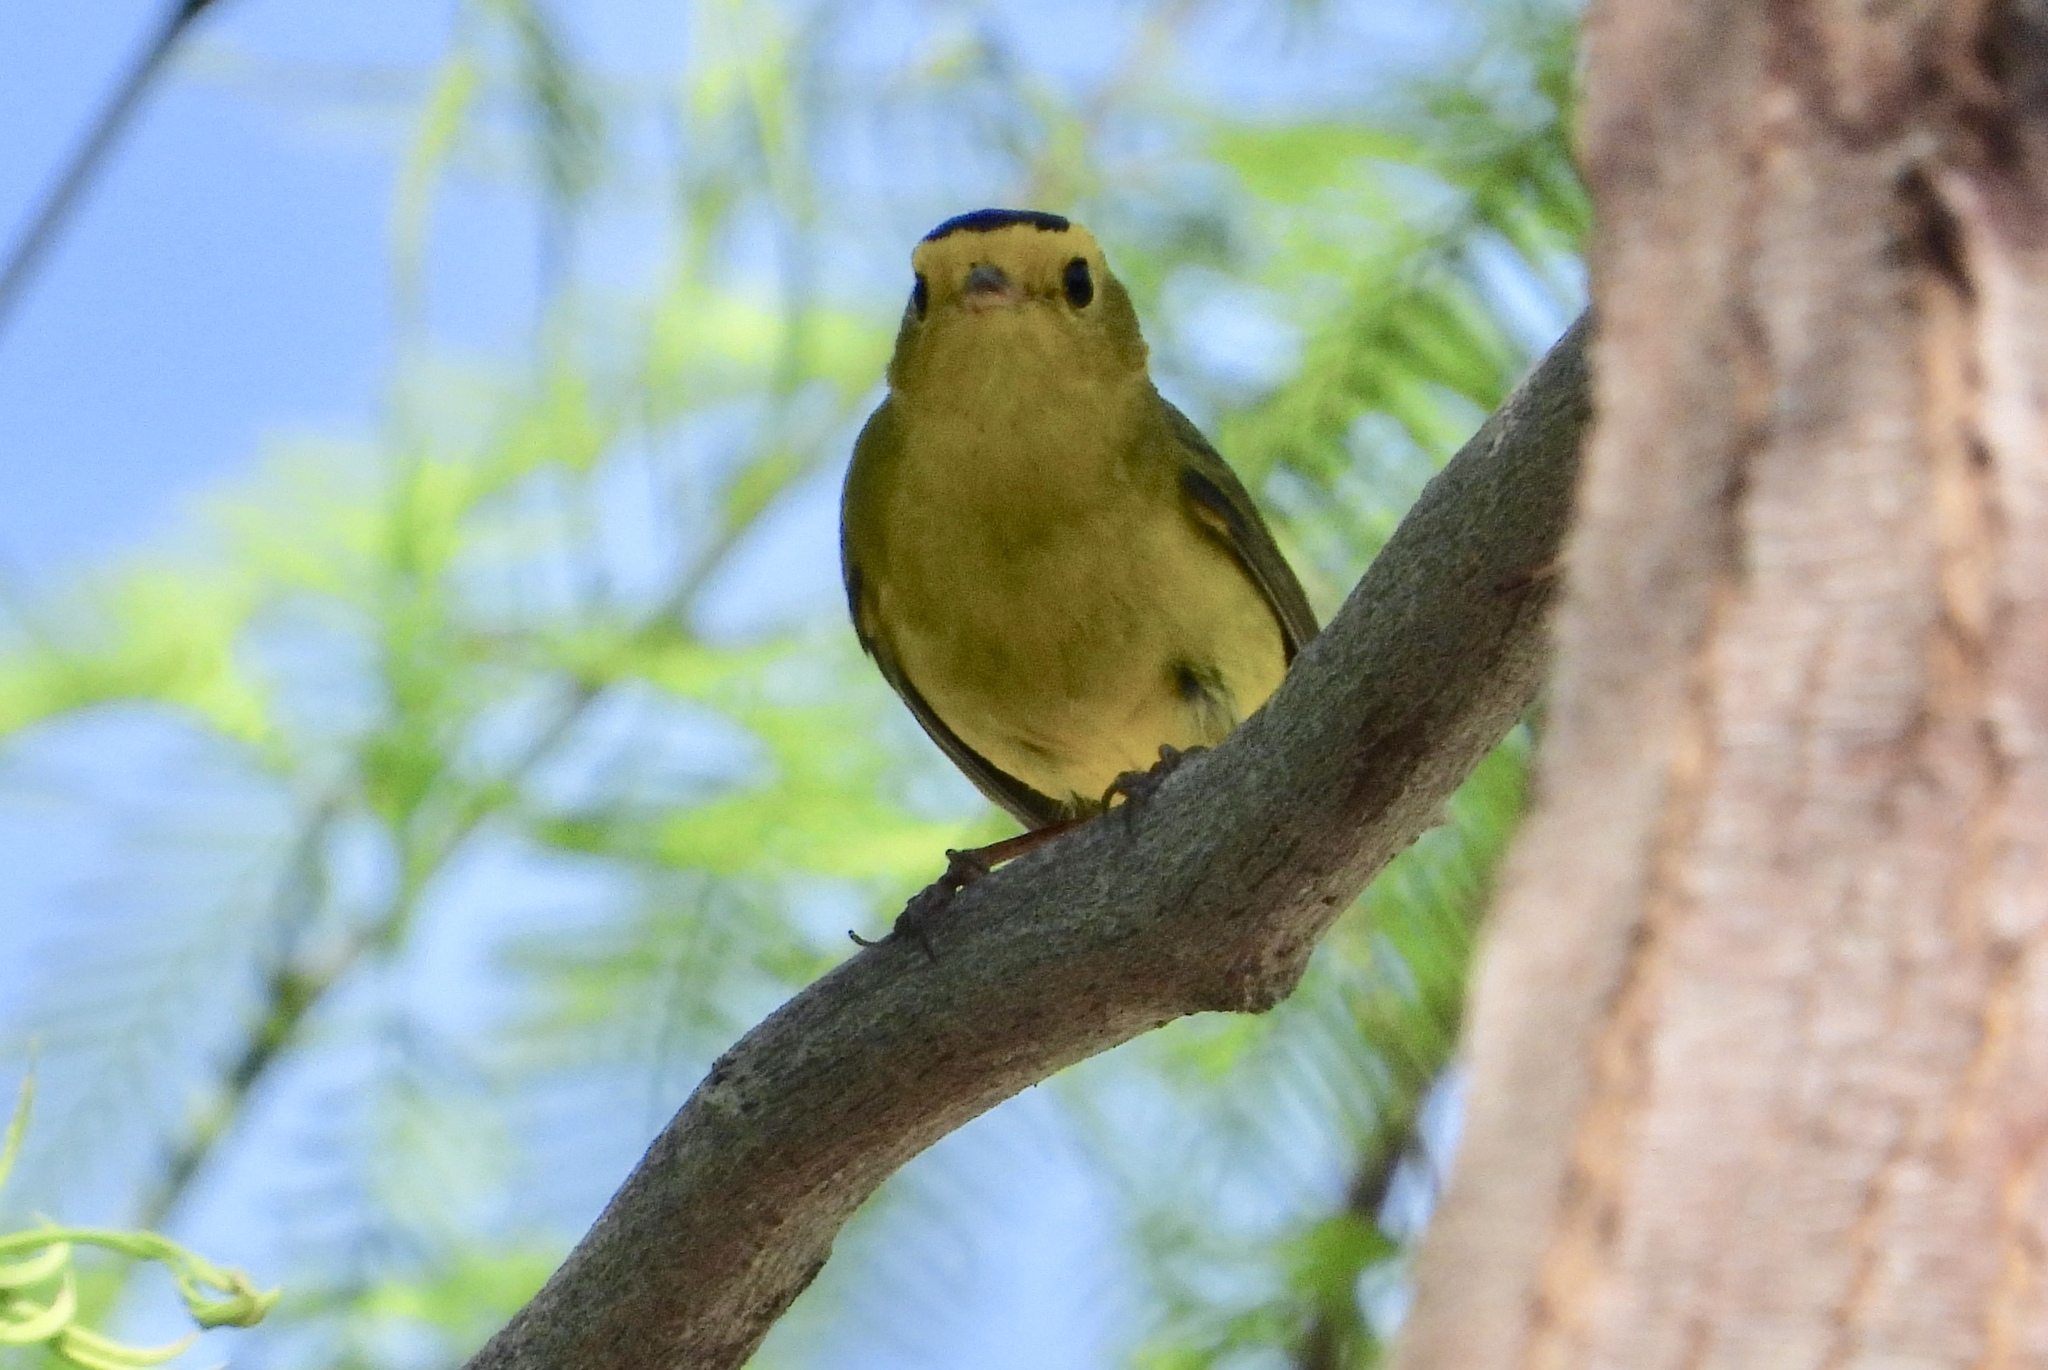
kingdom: Animalia
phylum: Chordata
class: Aves
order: Passeriformes
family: Parulidae
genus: Cardellina
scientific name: Cardellina pusilla
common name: Wilson's warbler
